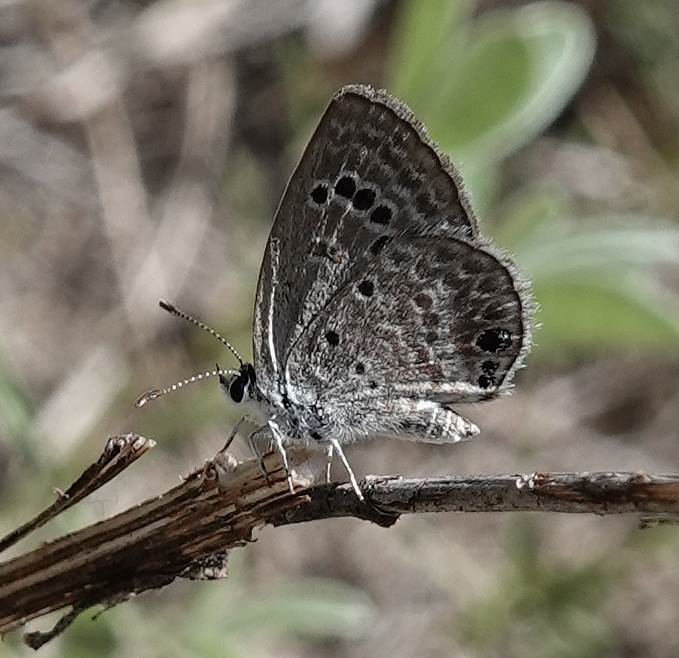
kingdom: Animalia
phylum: Arthropoda
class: Insecta
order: Lepidoptera
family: Lycaenidae
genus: Echinargus
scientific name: Echinargus isola
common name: Reakirt's blue
